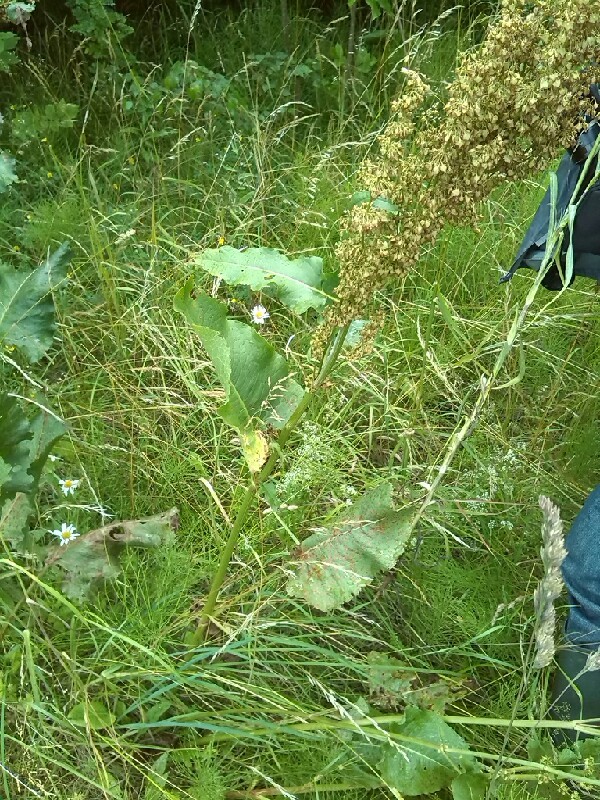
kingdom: Plantae
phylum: Tracheophyta
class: Magnoliopsida
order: Caryophyllales
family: Polygonaceae
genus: Rumex
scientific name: Rumex confertus
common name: Russian dock
